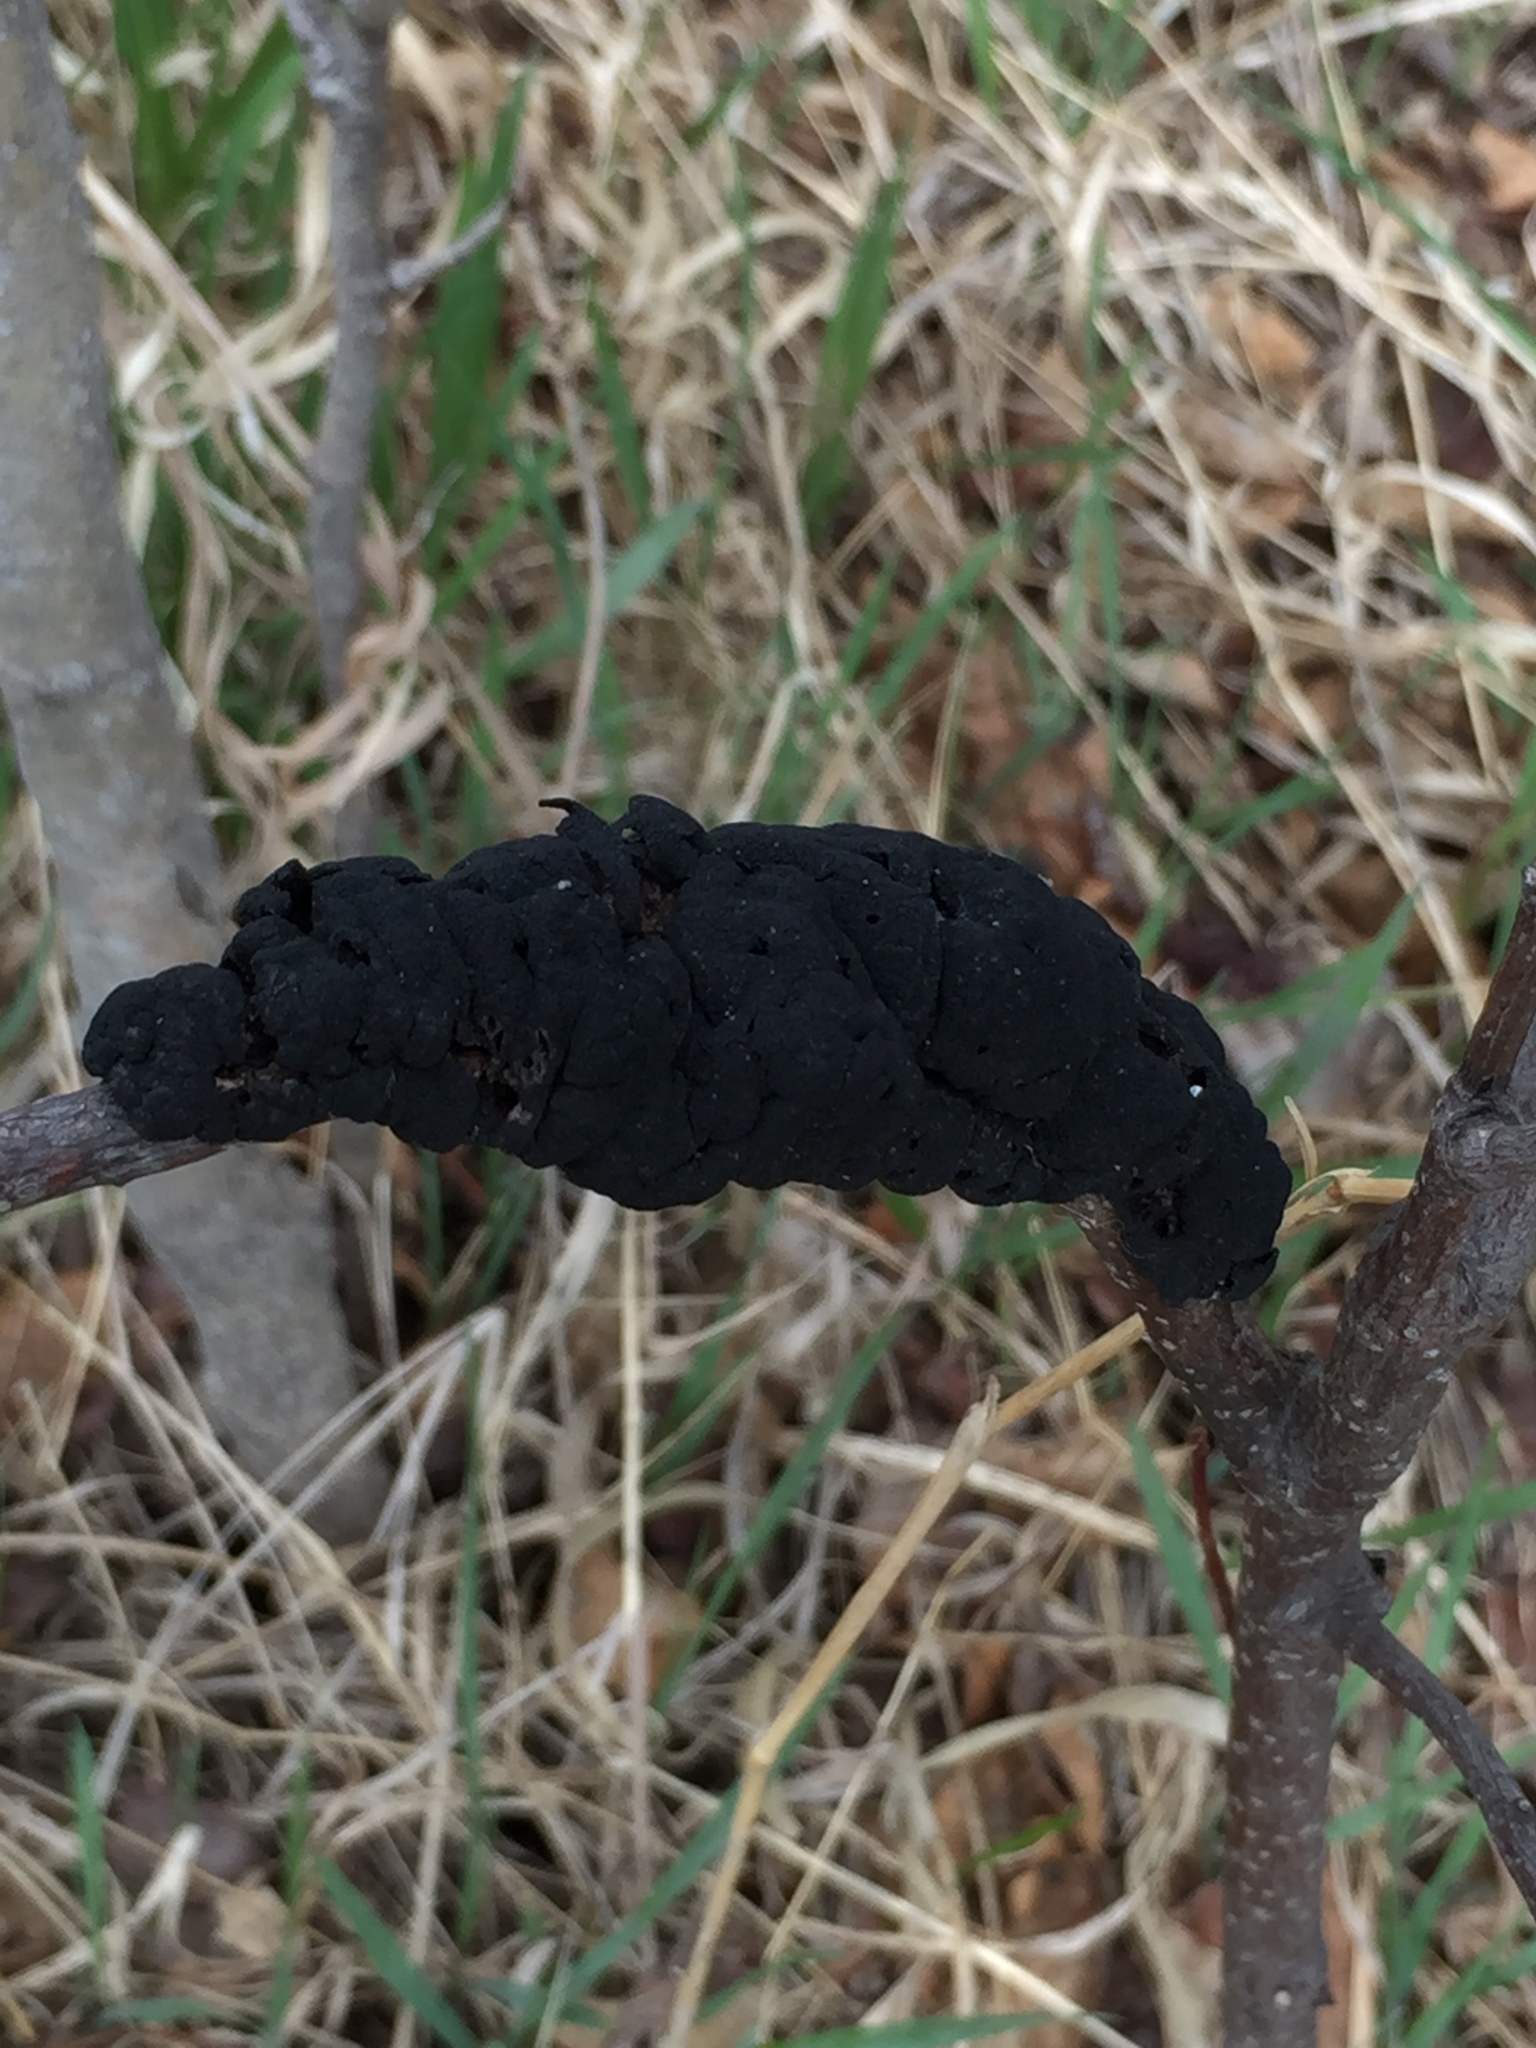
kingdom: Fungi
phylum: Ascomycota
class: Dothideomycetes
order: Venturiales
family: Venturiaceae
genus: Apiosporina
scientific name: Apiosporina morbosa
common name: Black knot
